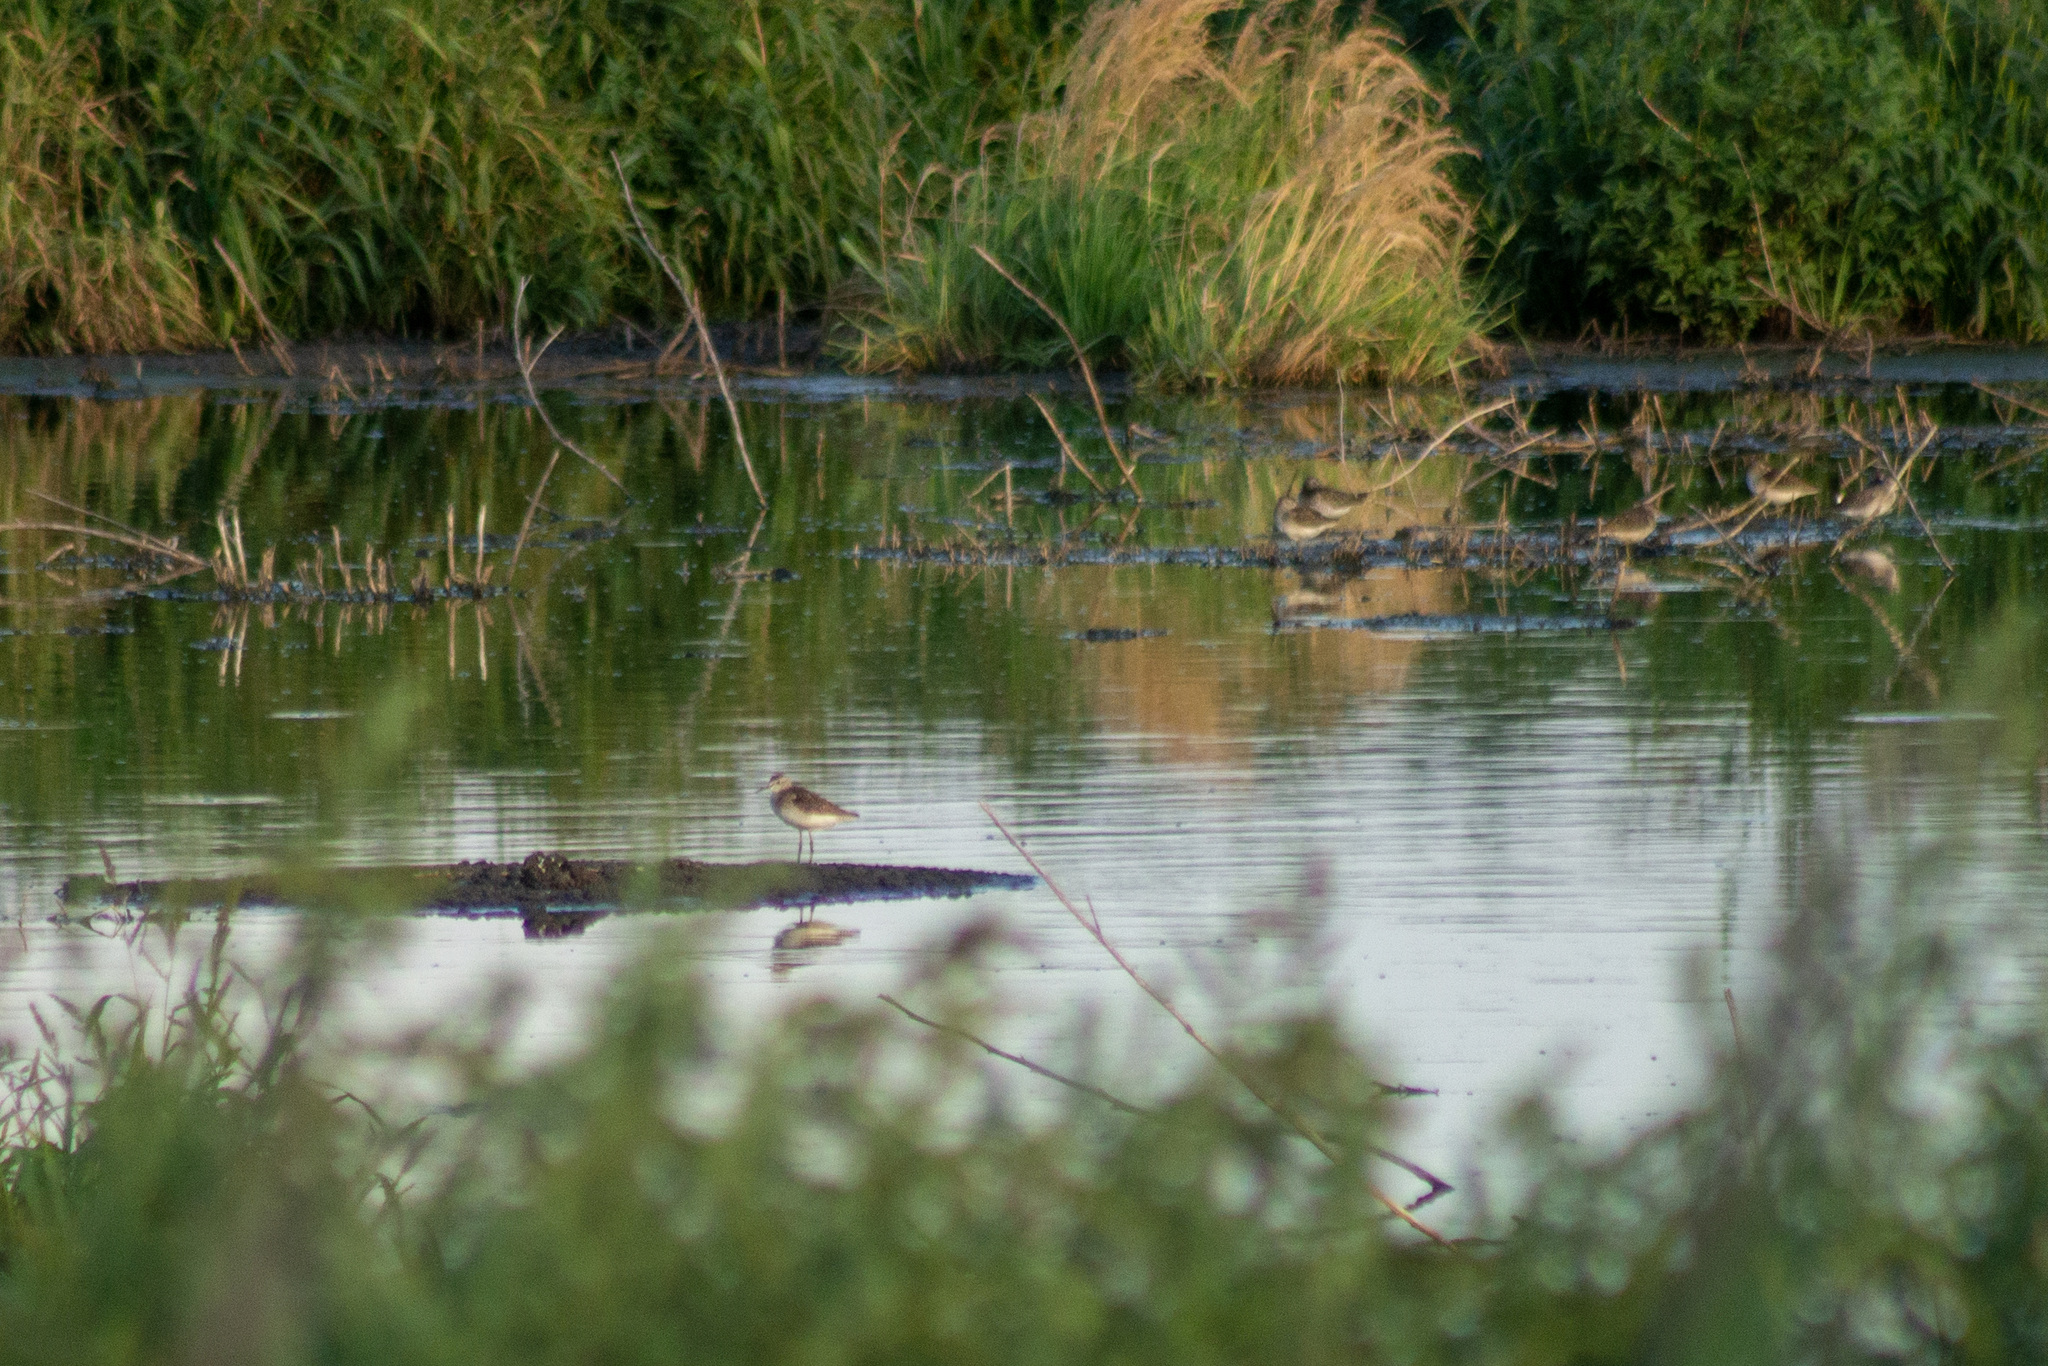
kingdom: Animalia
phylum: Chordata
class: Aves
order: Charadriiformes
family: Scolopacidae
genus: Tringa
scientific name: Tringa glareola
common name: Wood sandpiper
